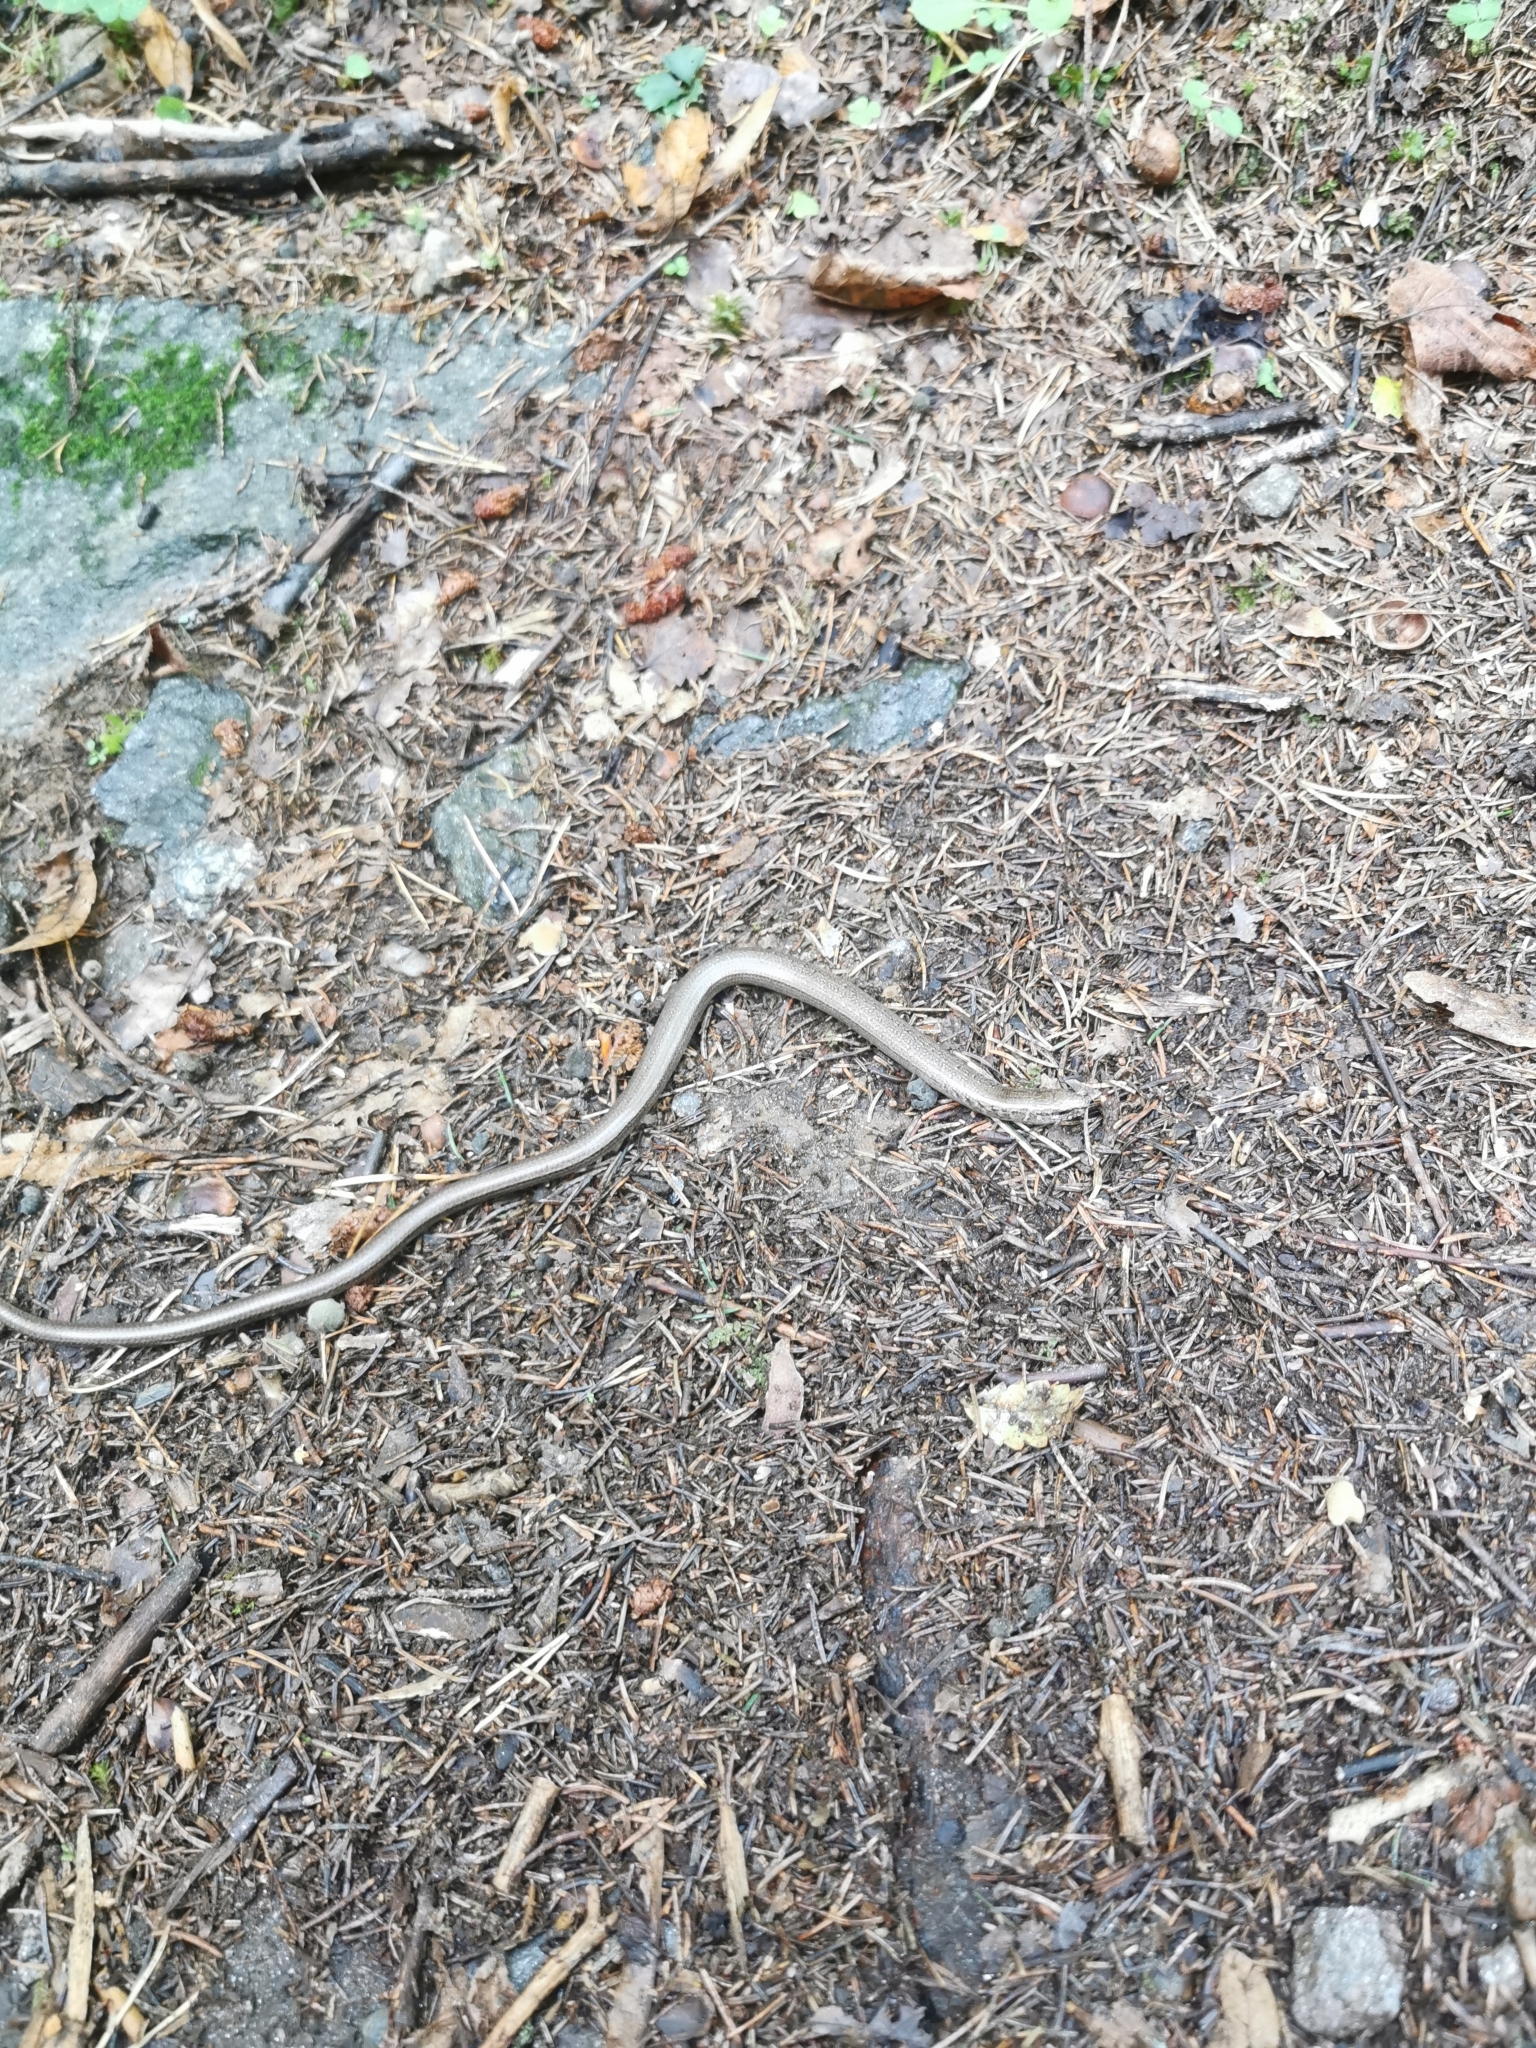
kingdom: Animalia
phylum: Chordata
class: Squamata
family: Anguidae
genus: Anguis
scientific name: Anguis fragilis
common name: Slow worm
